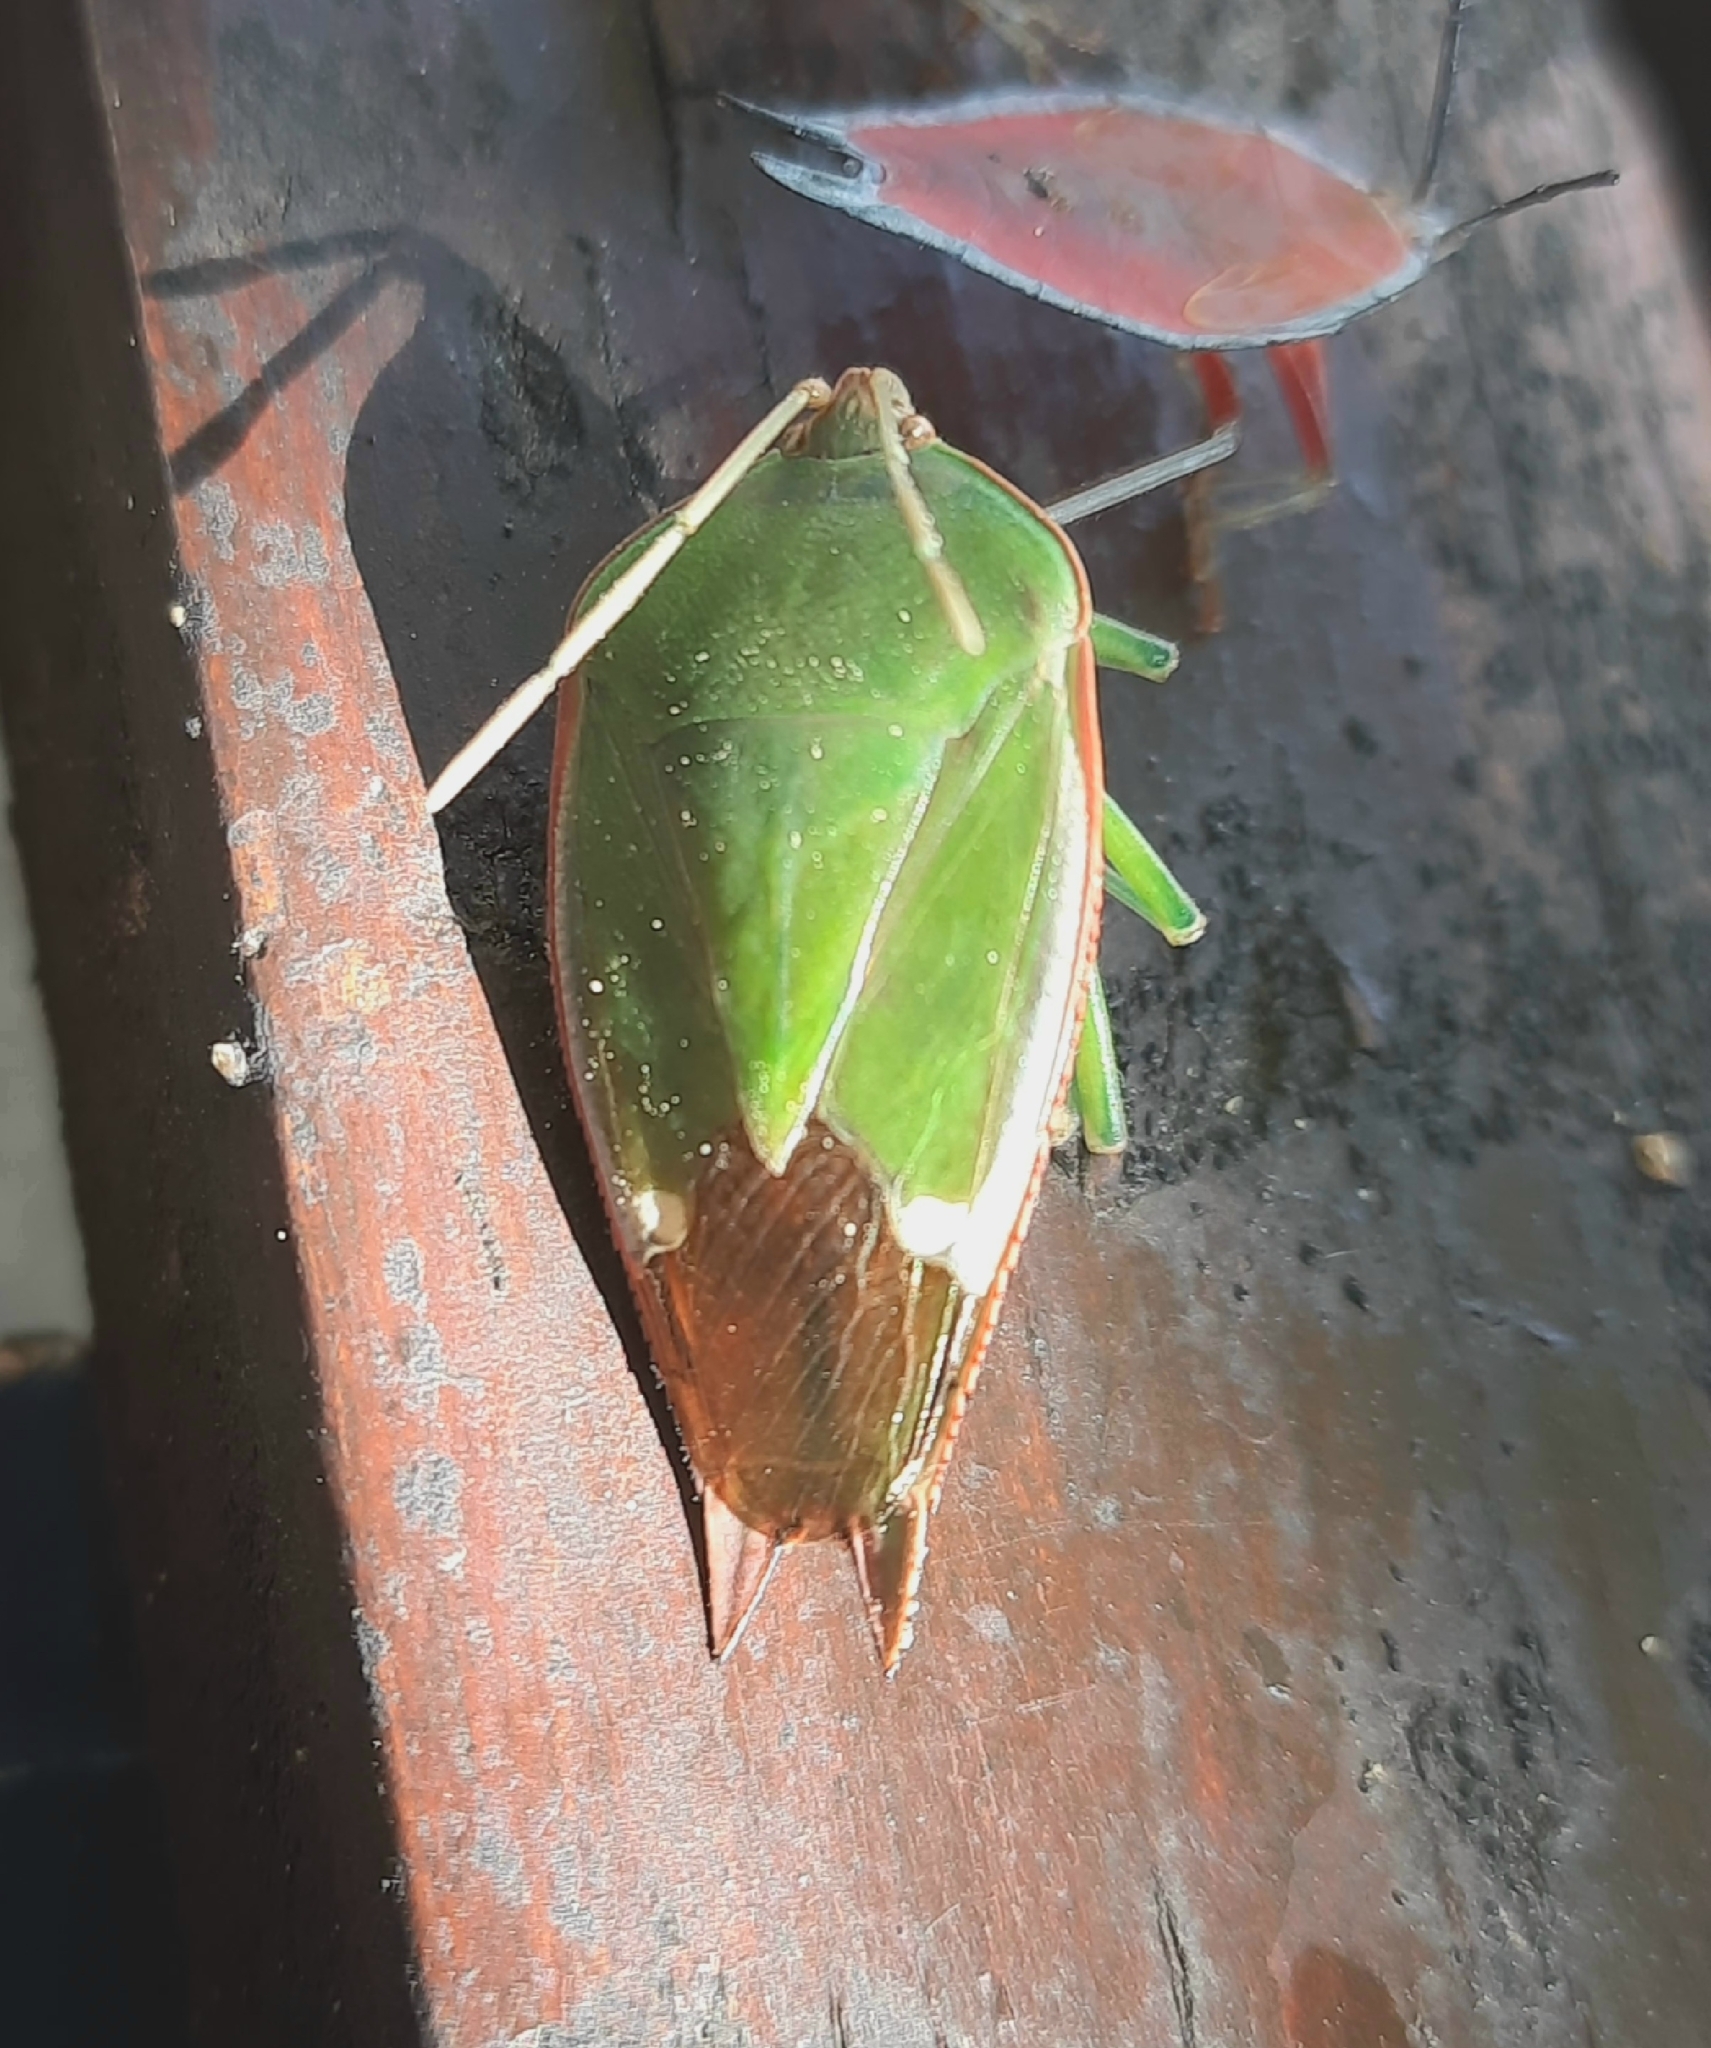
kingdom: Animalia
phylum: Arthropoda
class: Insecta
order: Hemiptera
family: Tessaratomidae
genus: Lyramorpha
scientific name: Lyramorpha rosea
